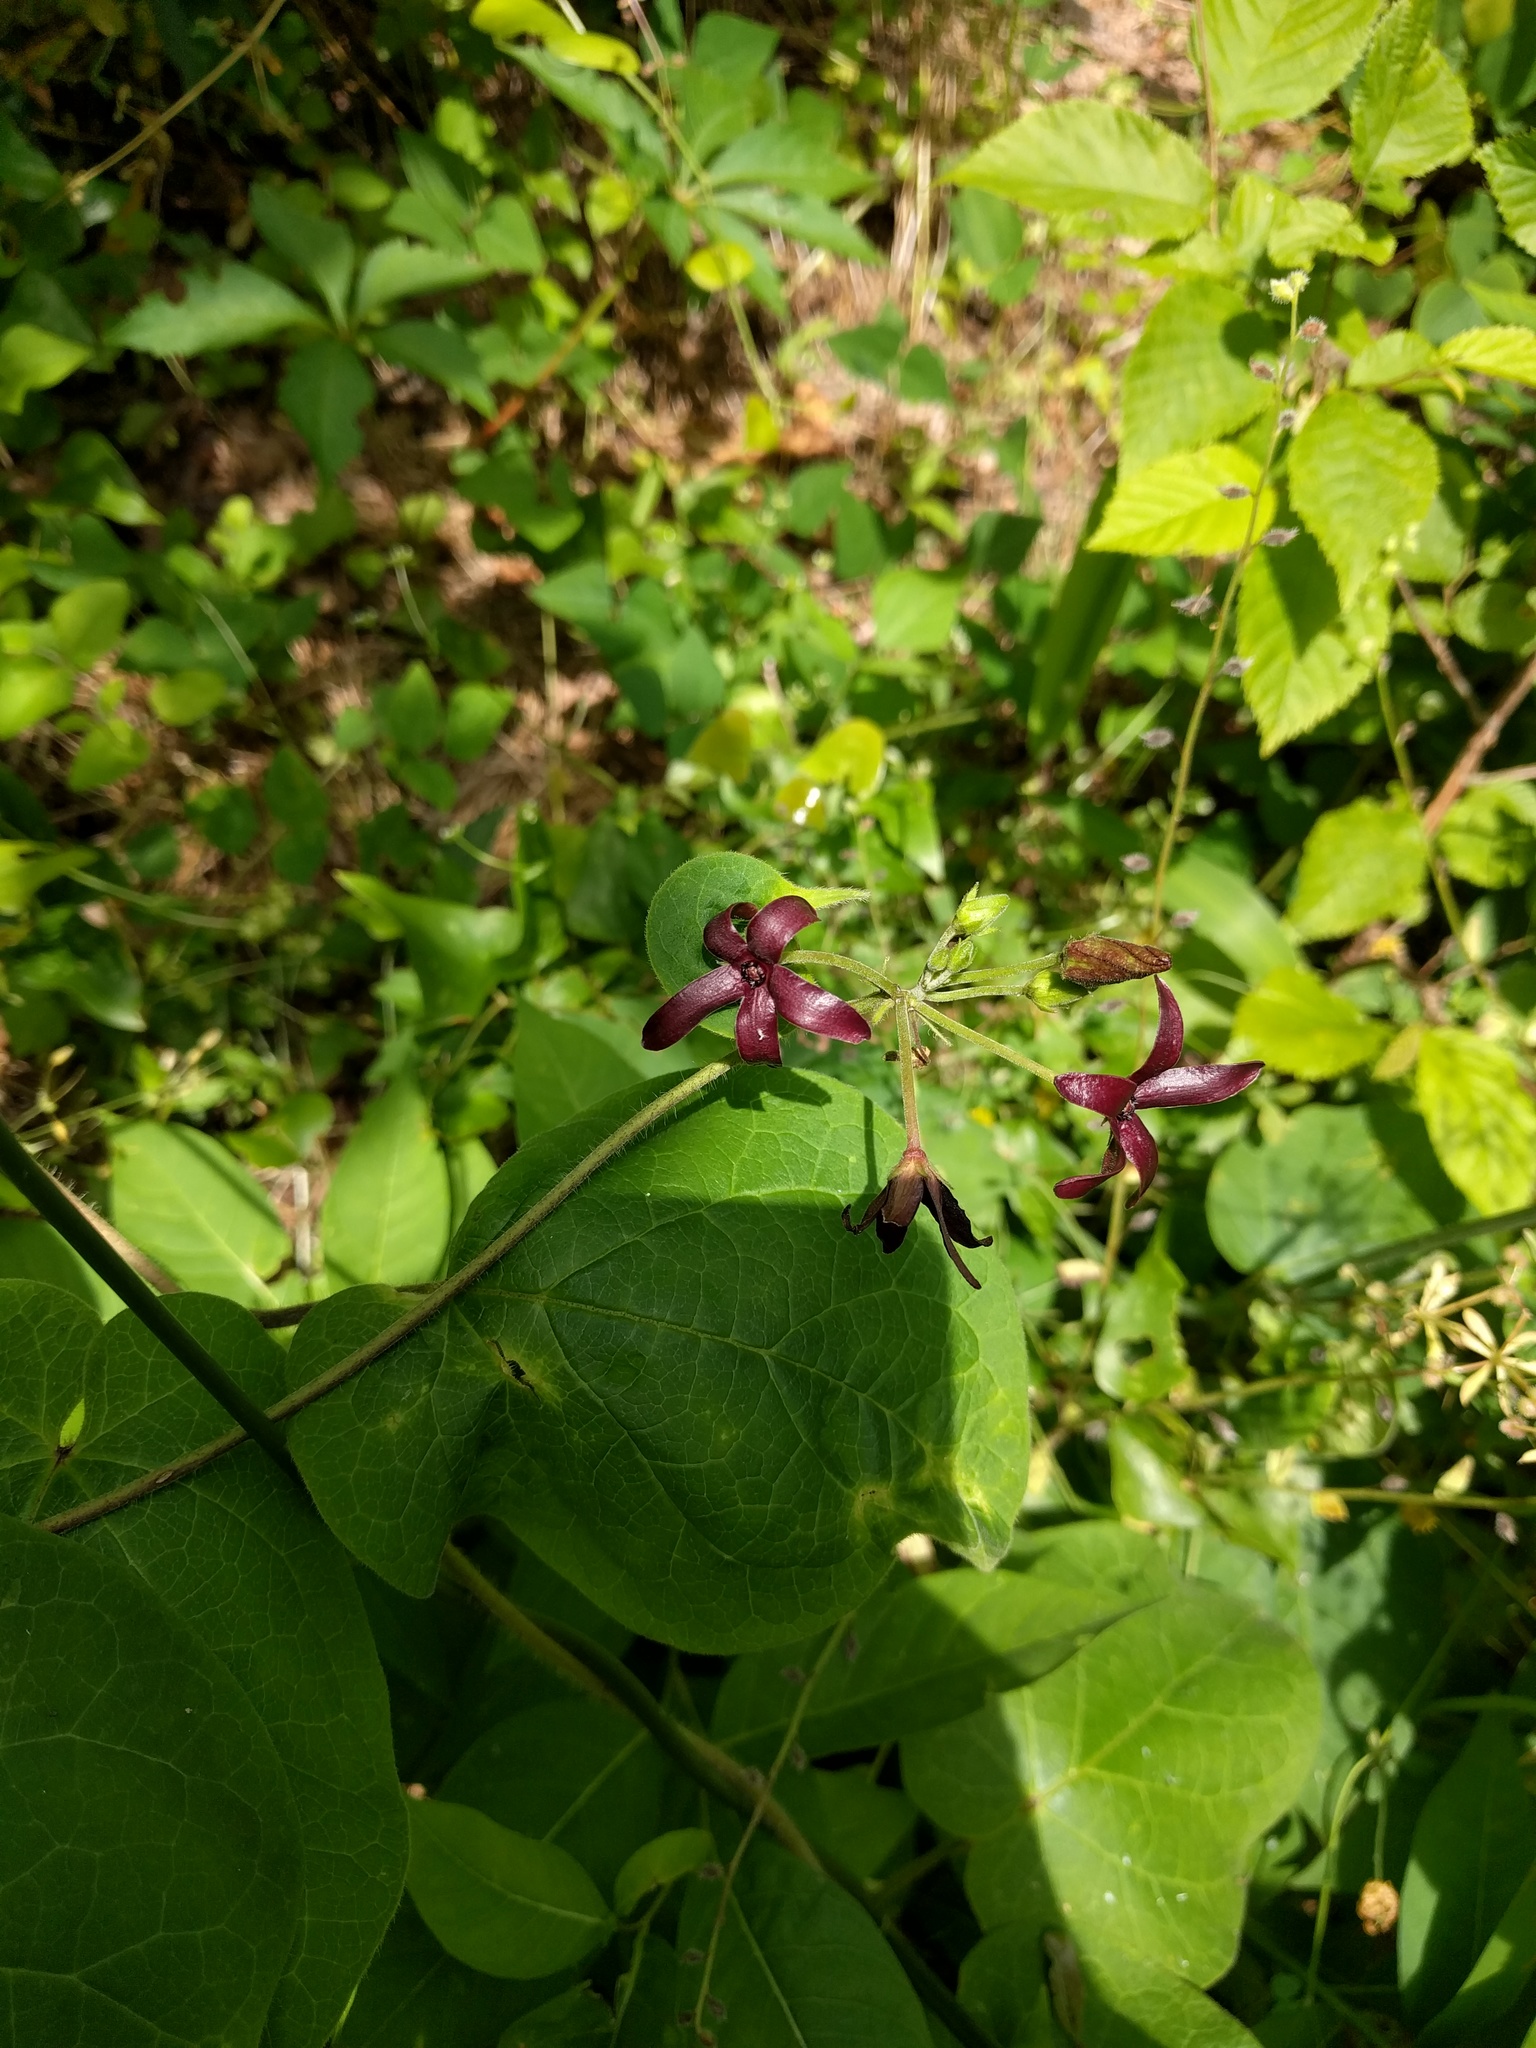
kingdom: Plantae
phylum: Tracheophyta
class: Magnoliopsida
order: Gentianales
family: Apocynaceae
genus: Matelea
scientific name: Matelea carolinensis
